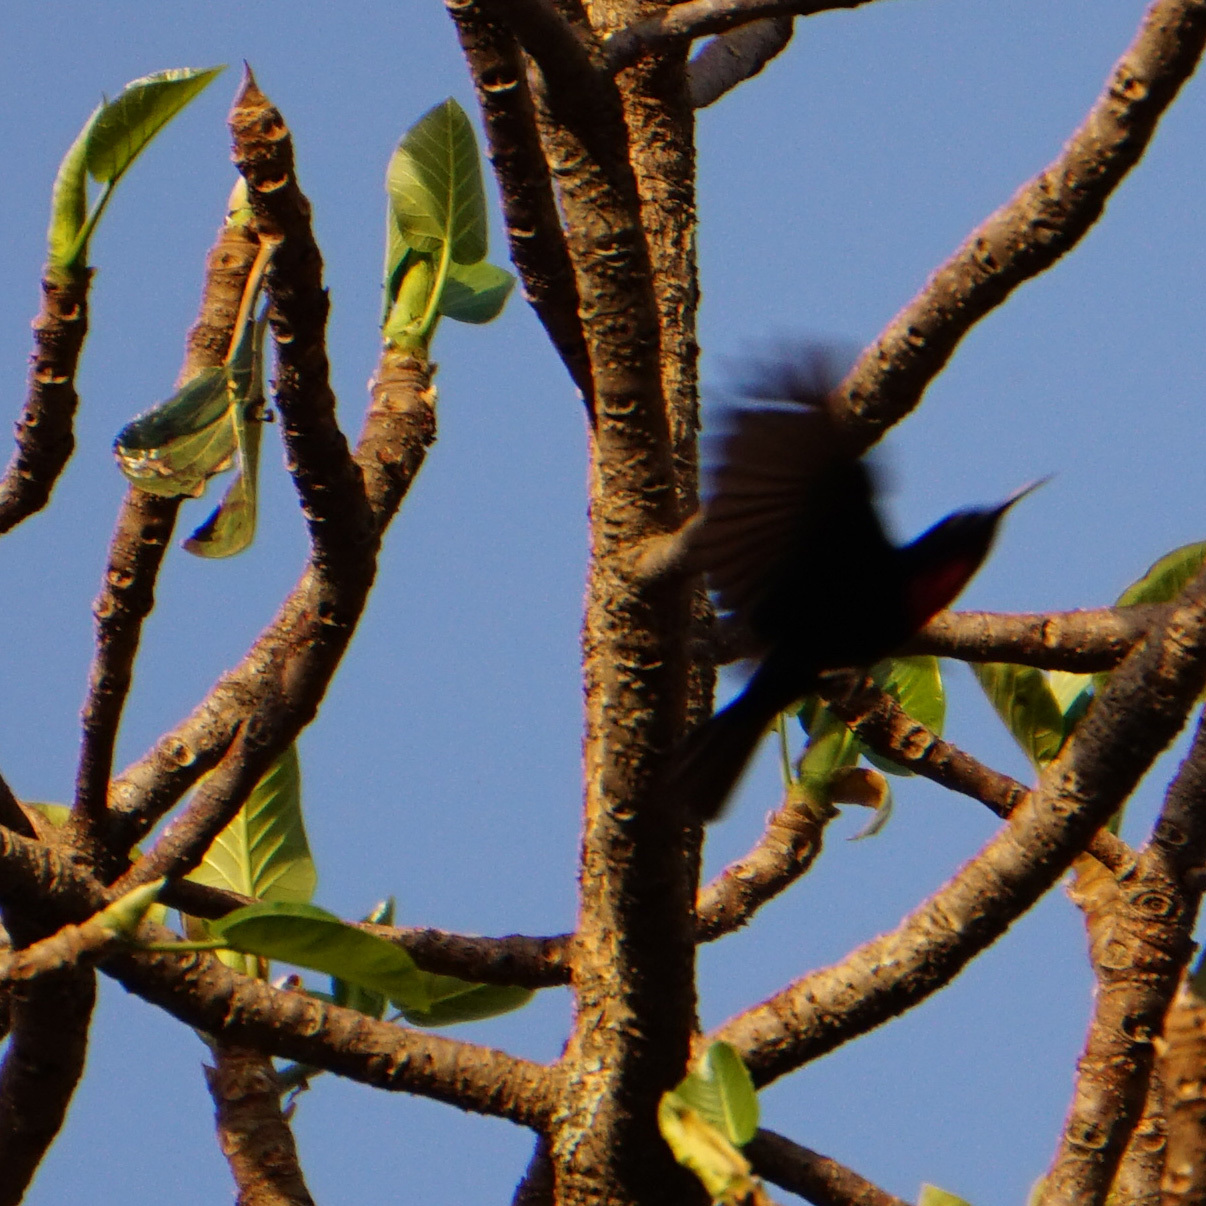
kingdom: Animalia
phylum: Chordata
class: Aves
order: Passeriformes
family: Nectariniidae
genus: Chalcomitra
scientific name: Chalcomitra senegalensis
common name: Scarlet-chested sunbird
